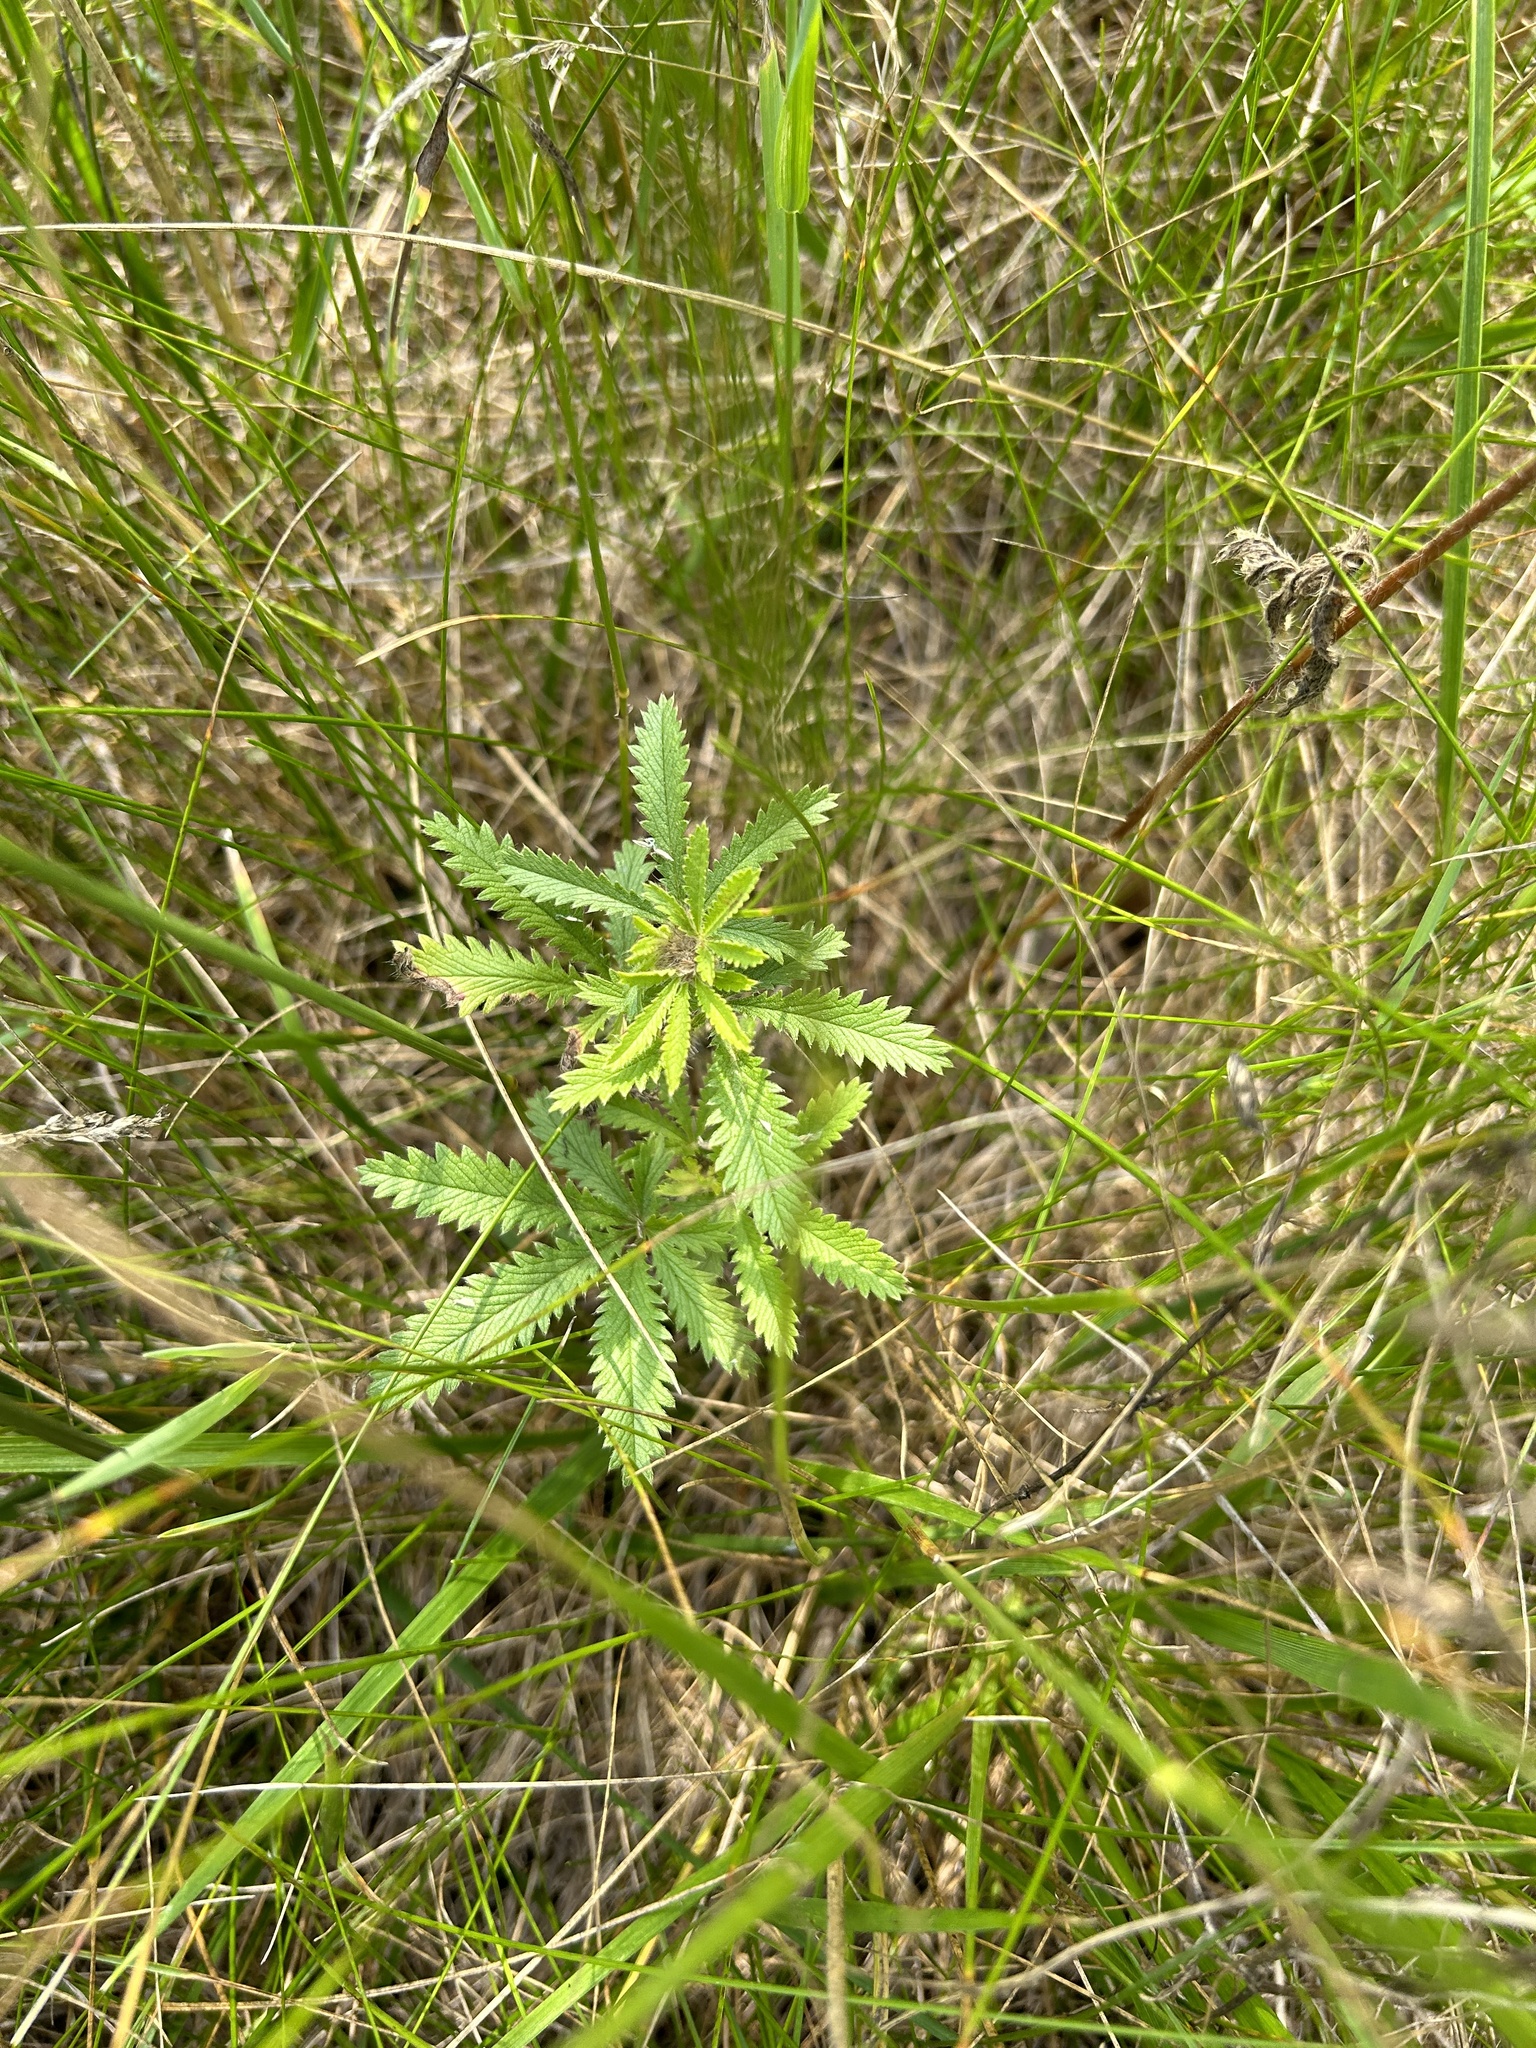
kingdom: Plantae
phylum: Tracheophyta
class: Magnoliopsida
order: Rosales
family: Rosaceae
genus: Potentilla
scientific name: Potentilla recta
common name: Sulphur cinquefoil
